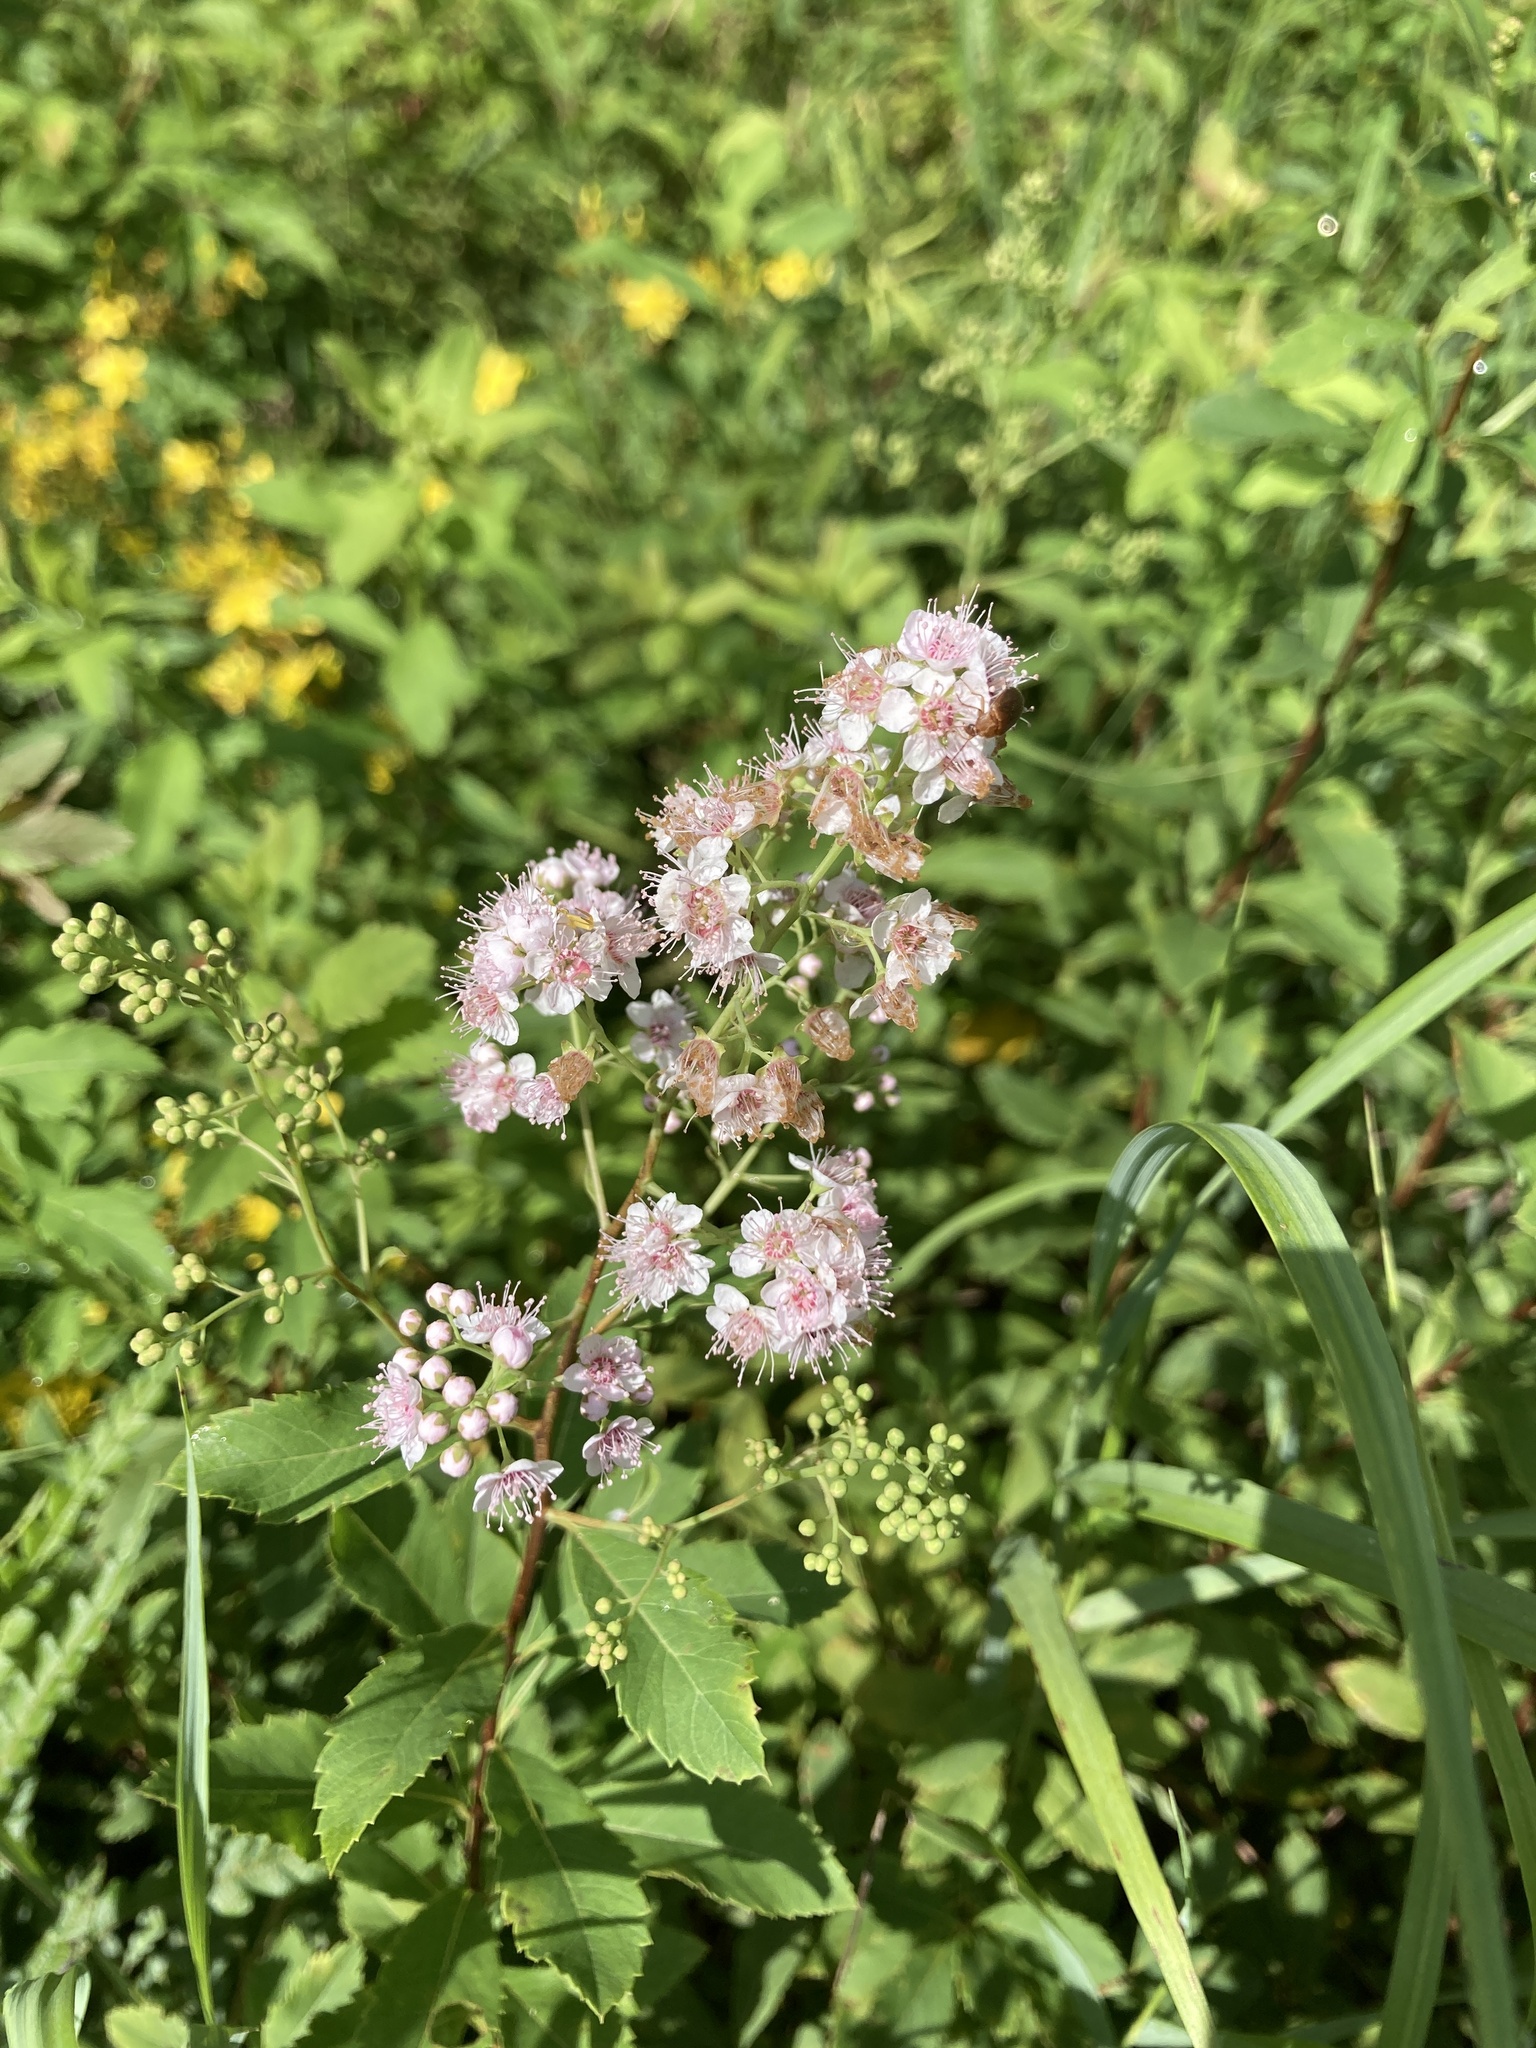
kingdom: Plantae
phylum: Tracheophyta
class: Magnoliopsida
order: Rosales
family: Rosaceae
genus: Spiraea
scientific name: Spiraea alba
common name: Pale bridewort
